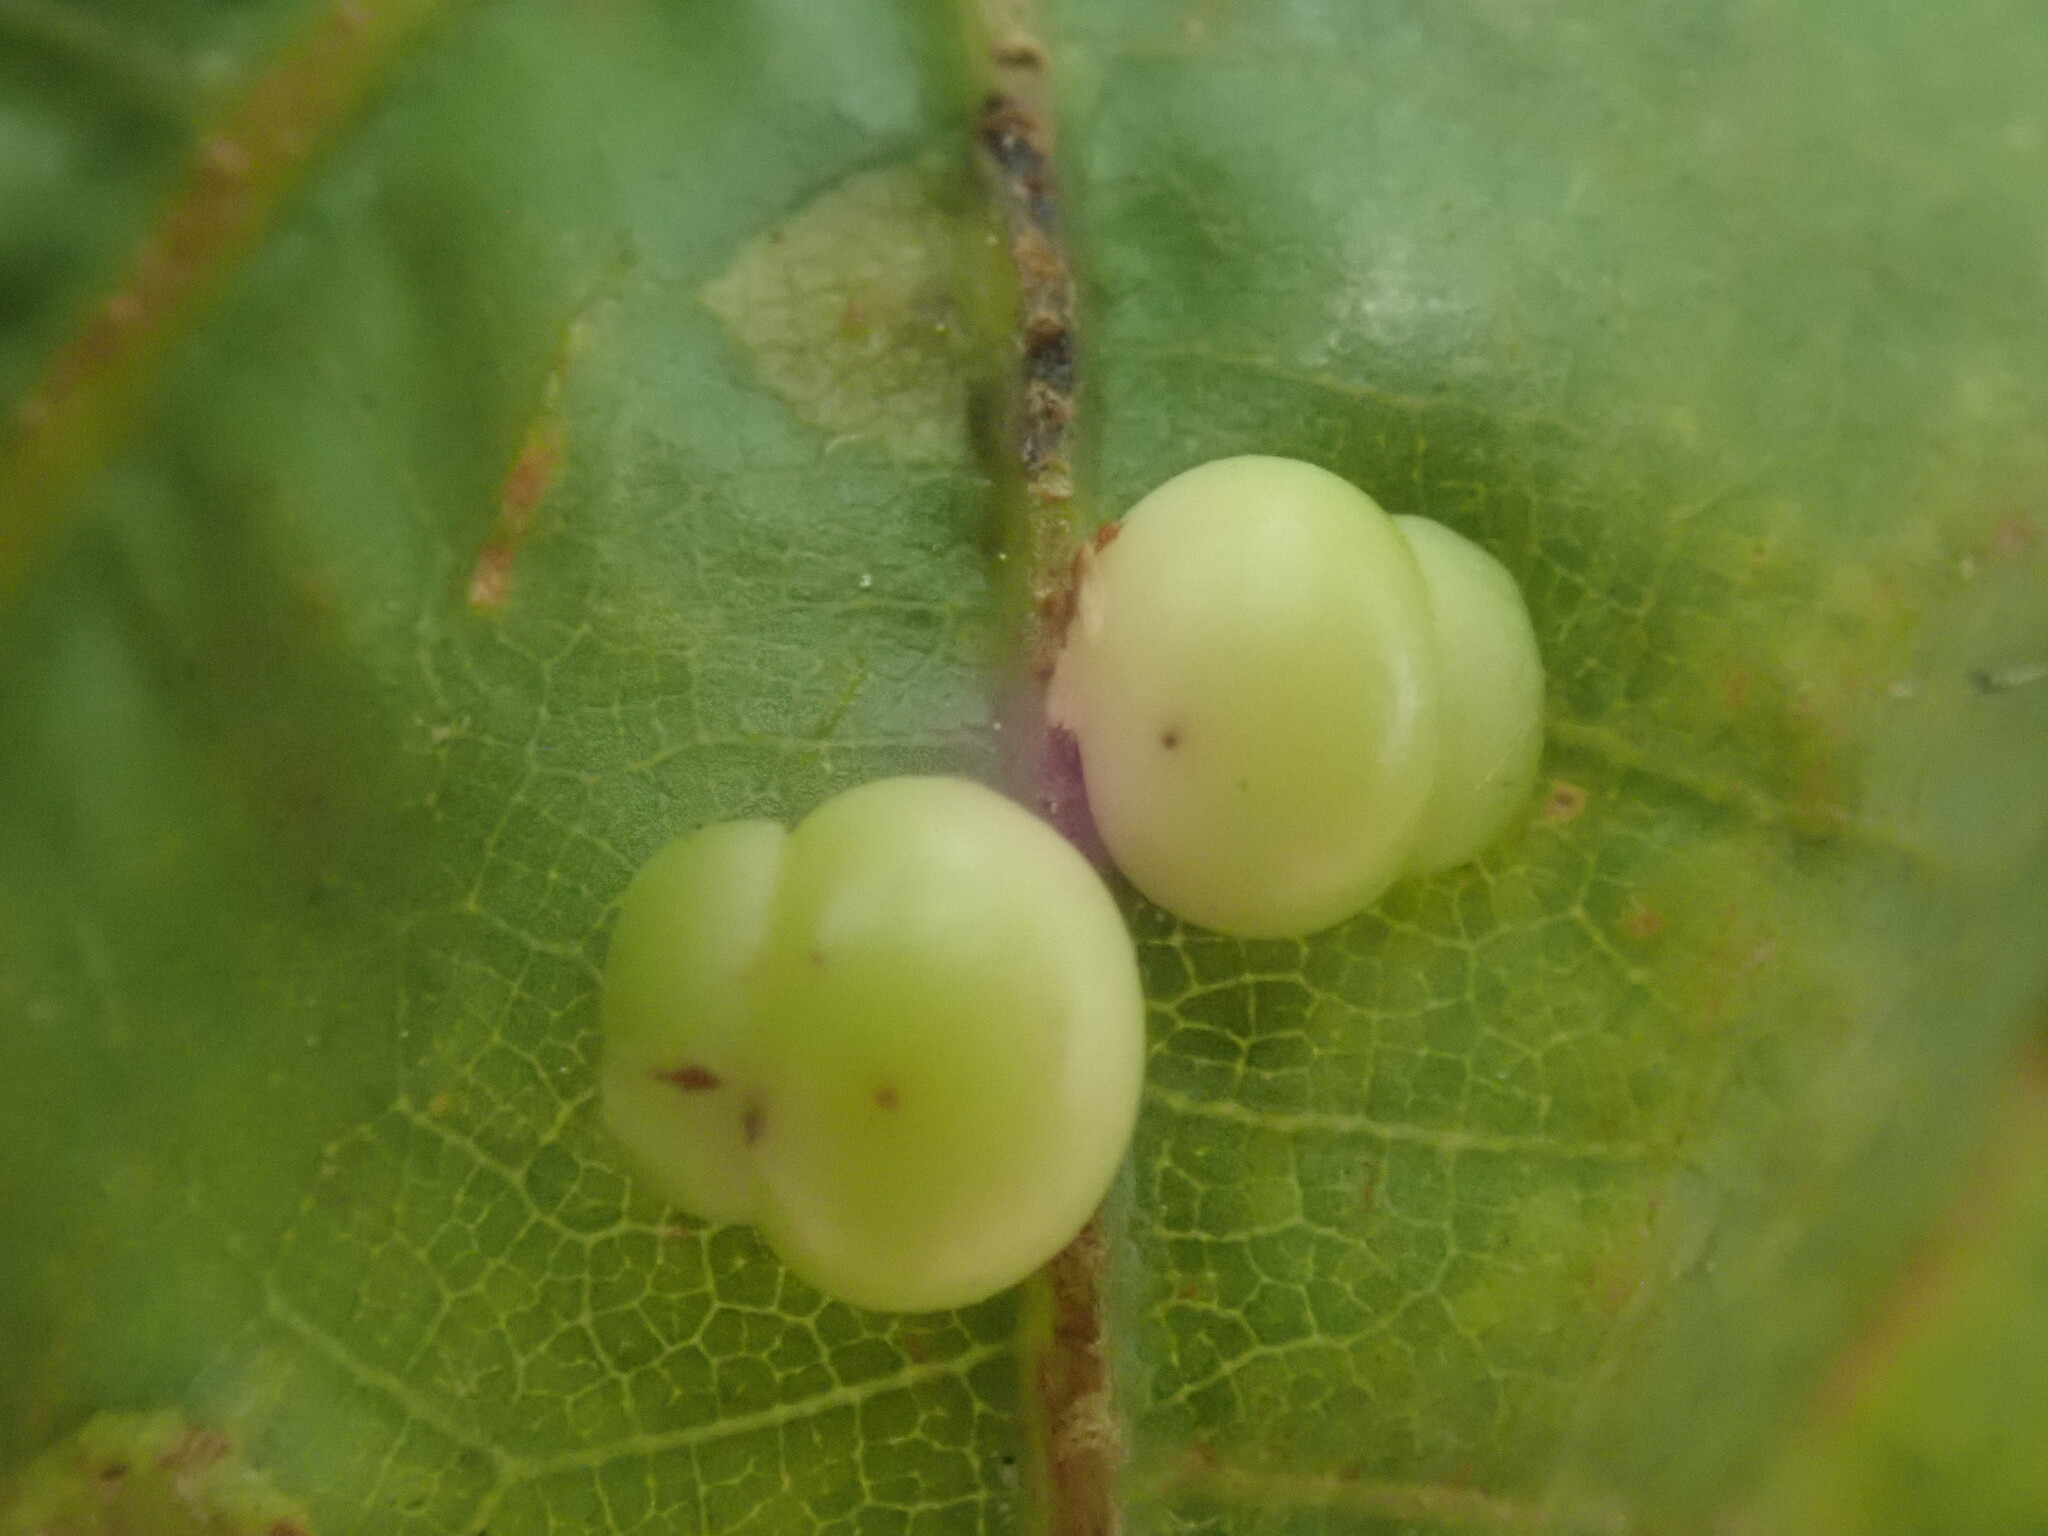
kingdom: Animalia
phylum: Arthropoda
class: Insecta
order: Hymenoptera
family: Cynipidae
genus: Kokkocynips
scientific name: Kokkocynips rileyi
